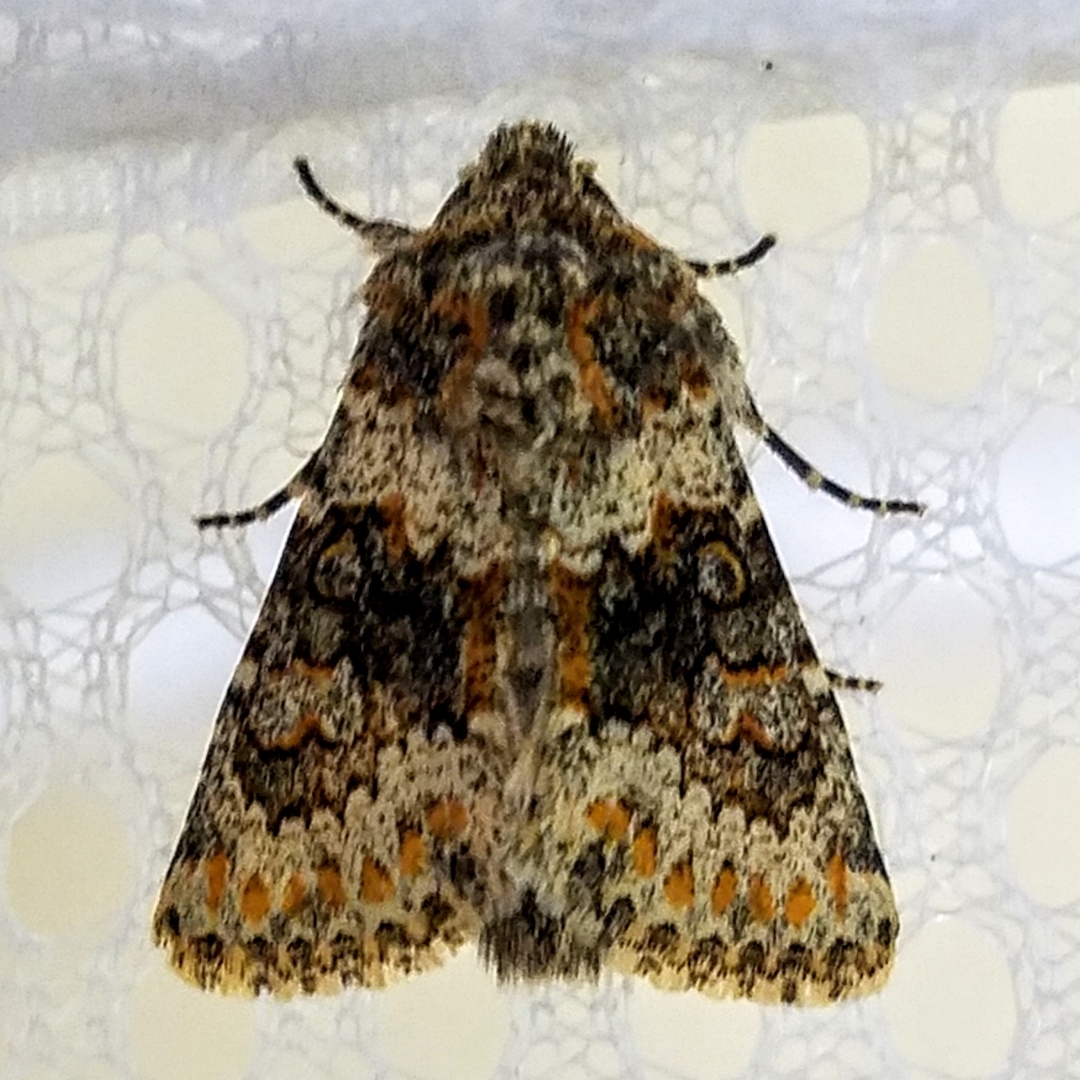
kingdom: Animalia
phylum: Arthropoda
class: Insecta
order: Lepidoptera
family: Noctuidae
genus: Hecatera
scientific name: Hecatera dysodea
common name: Small ranunculus
